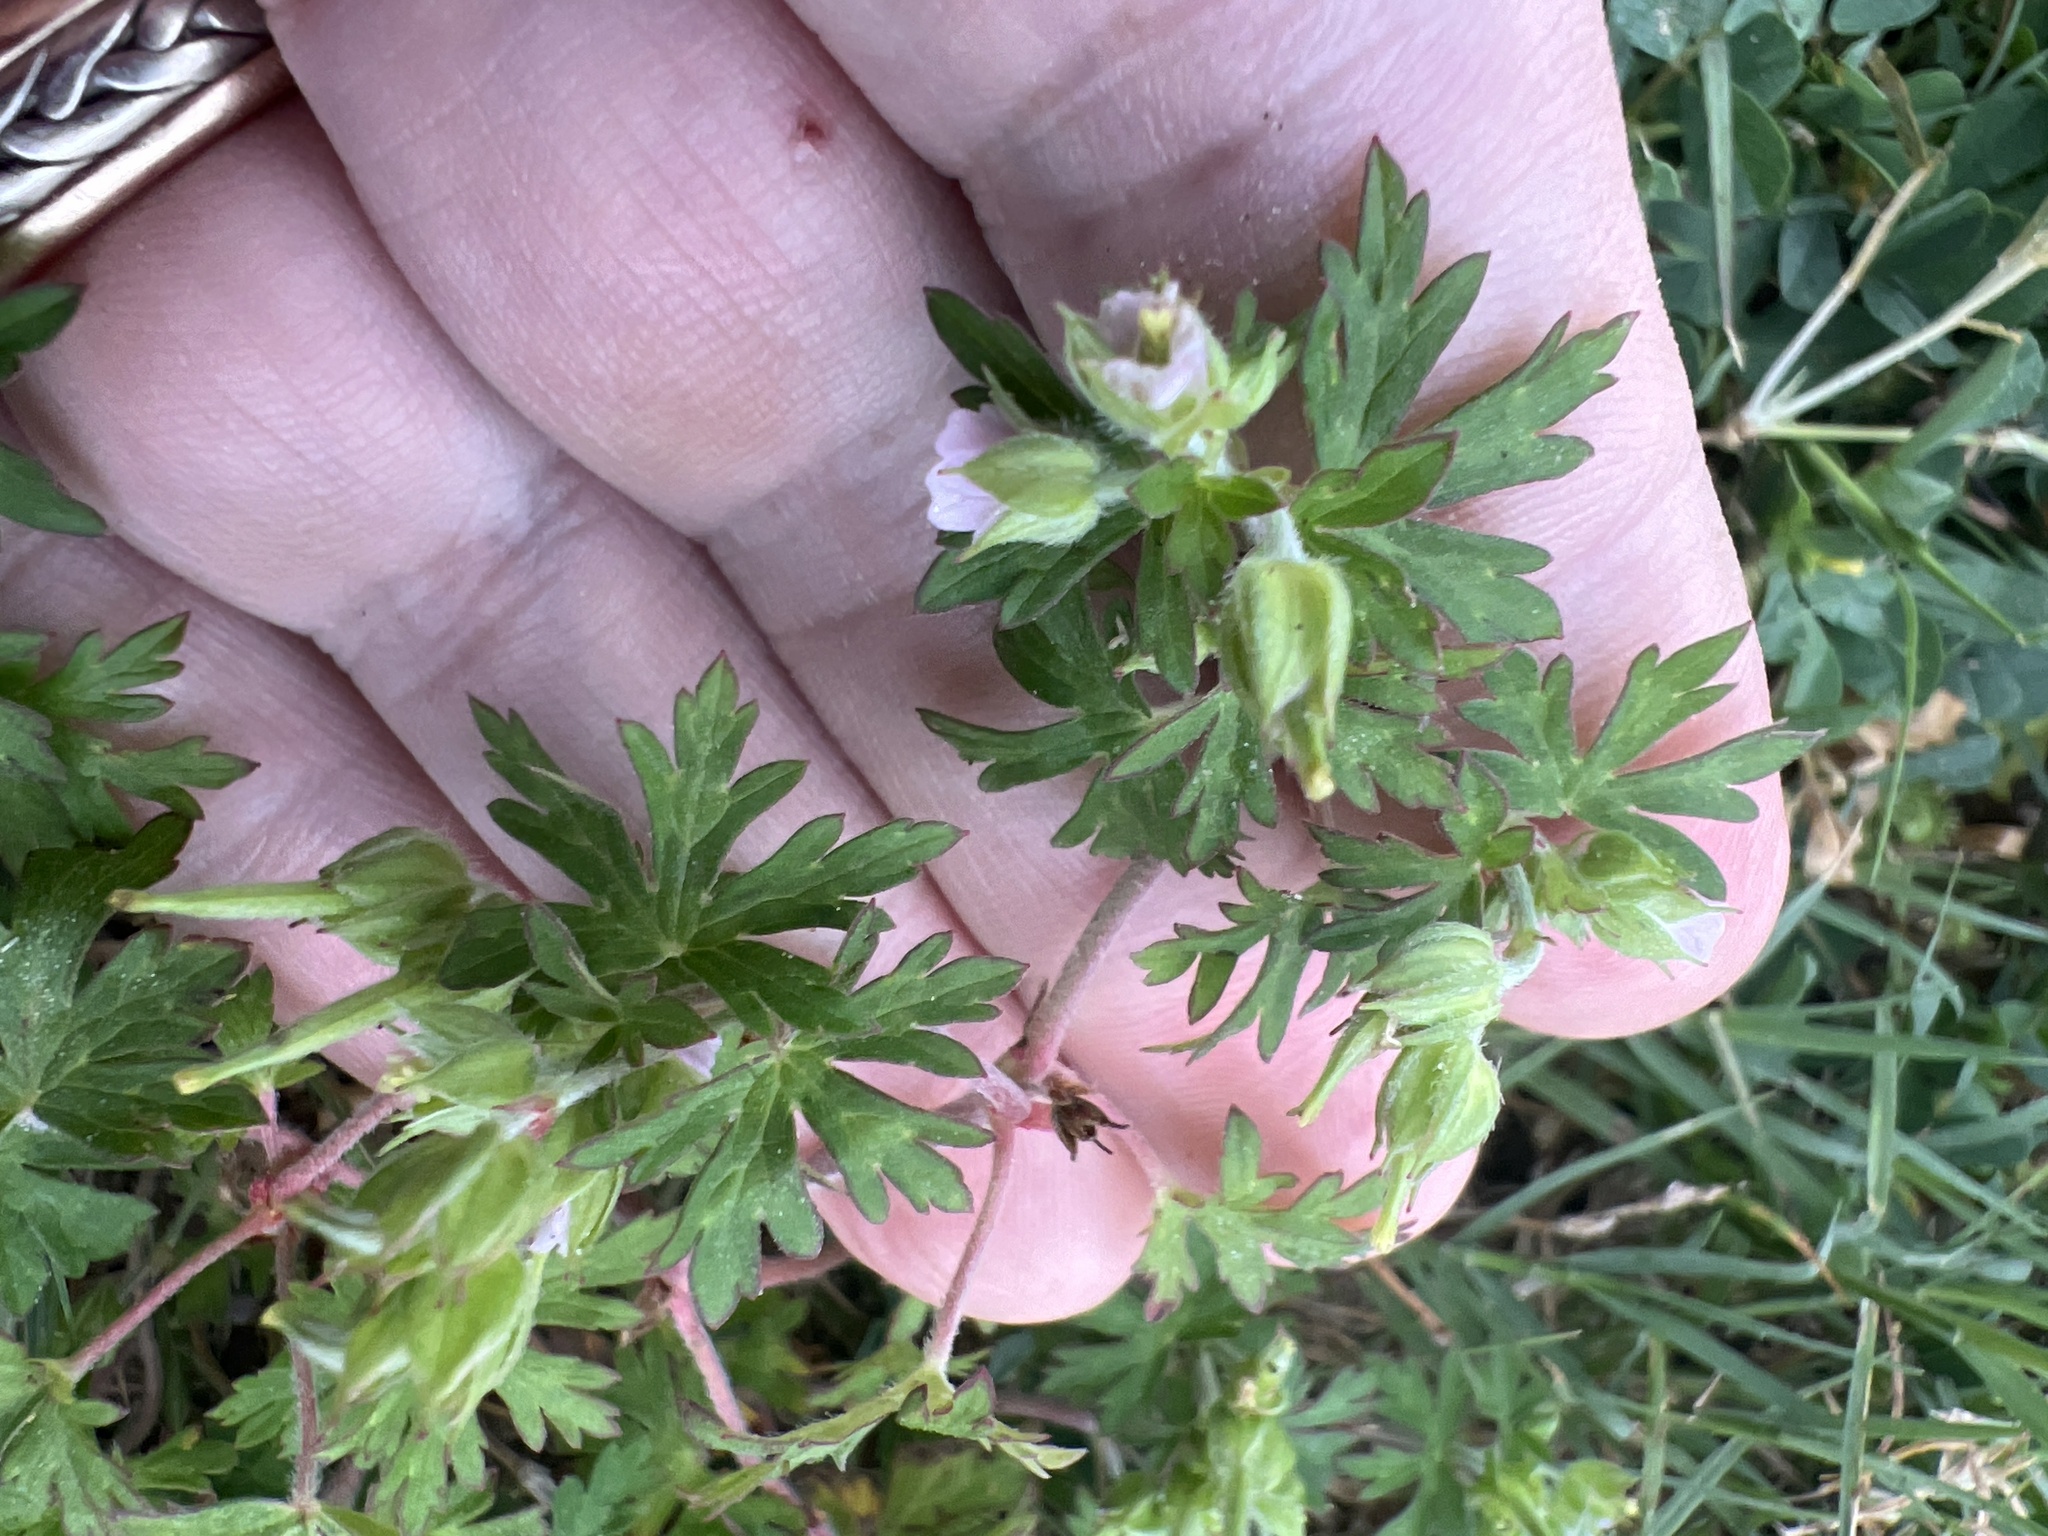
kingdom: Plantae
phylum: Tracheophyta
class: Magnoliopsida
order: Geraniales
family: Geraniaceae
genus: Geranium
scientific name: Geranium carolinianum
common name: Carolina crane's-bill
